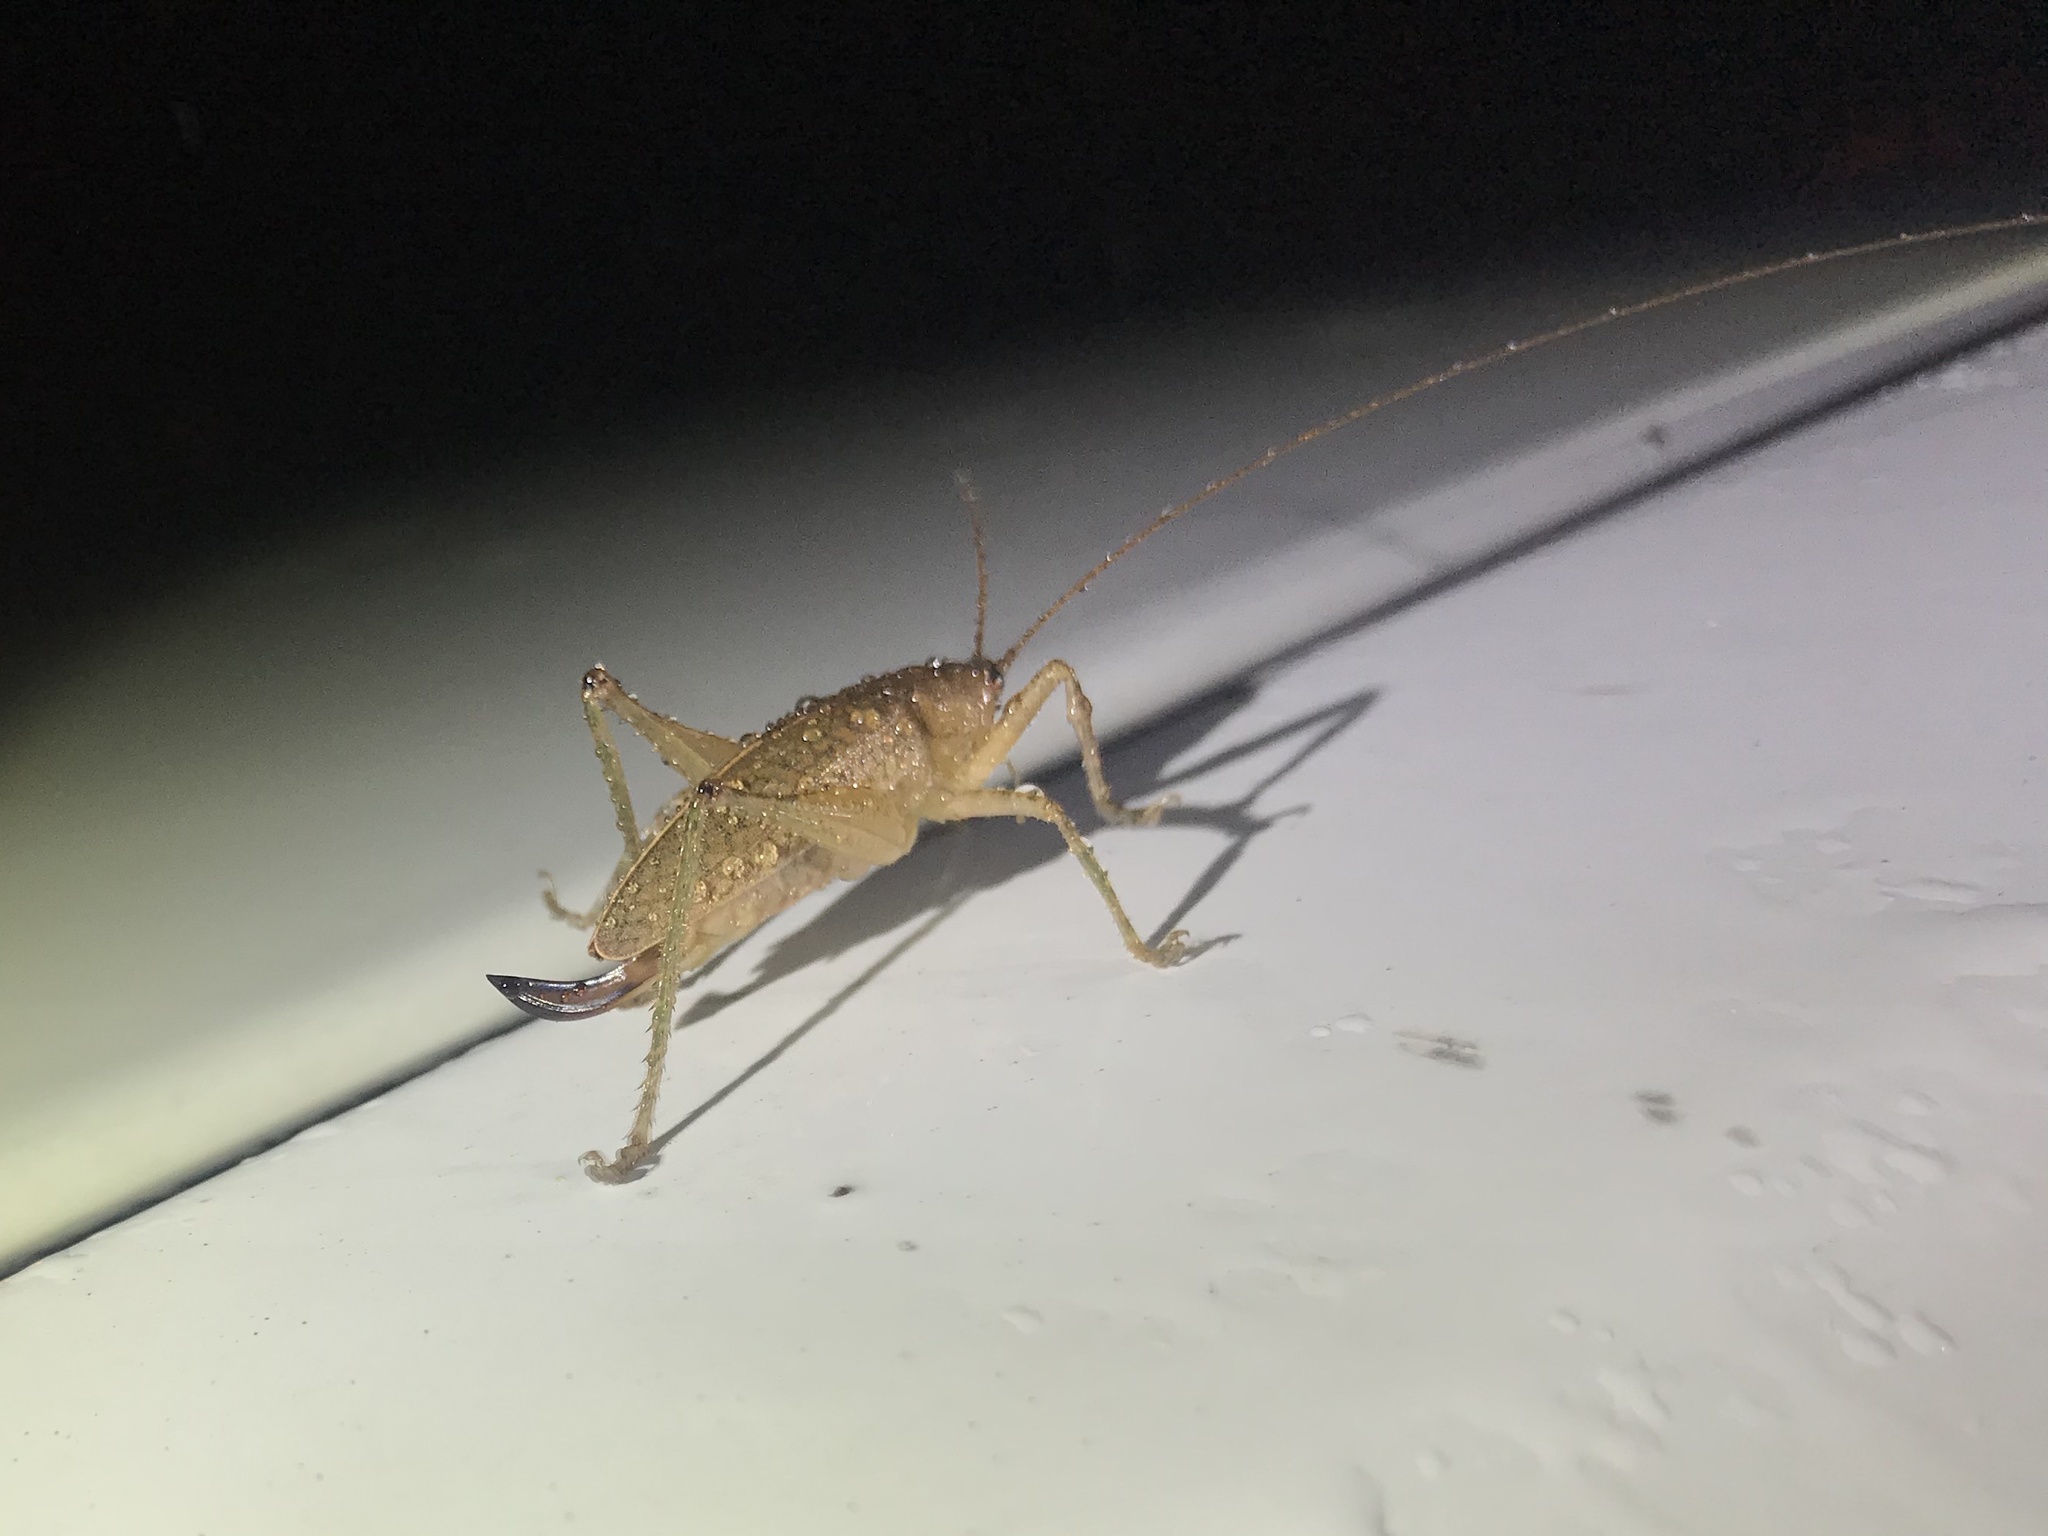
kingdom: Animalia
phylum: Arthropoda
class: Insecta
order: Orthoptera
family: Tettigoniidae
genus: Thamnobates
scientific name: Thamnobates subfalcata
